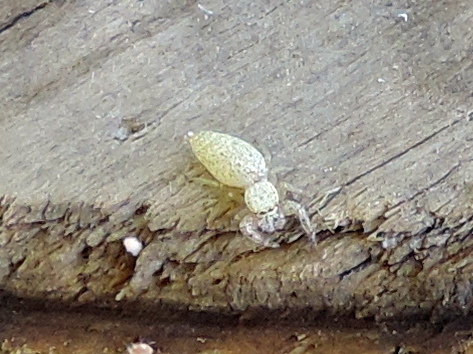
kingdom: Animalia
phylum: Arthropoda
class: Arachnida
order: Araneae
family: Salticidae
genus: Hentzia
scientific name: Hentzia palmarum
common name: Common hentz jumping spider
